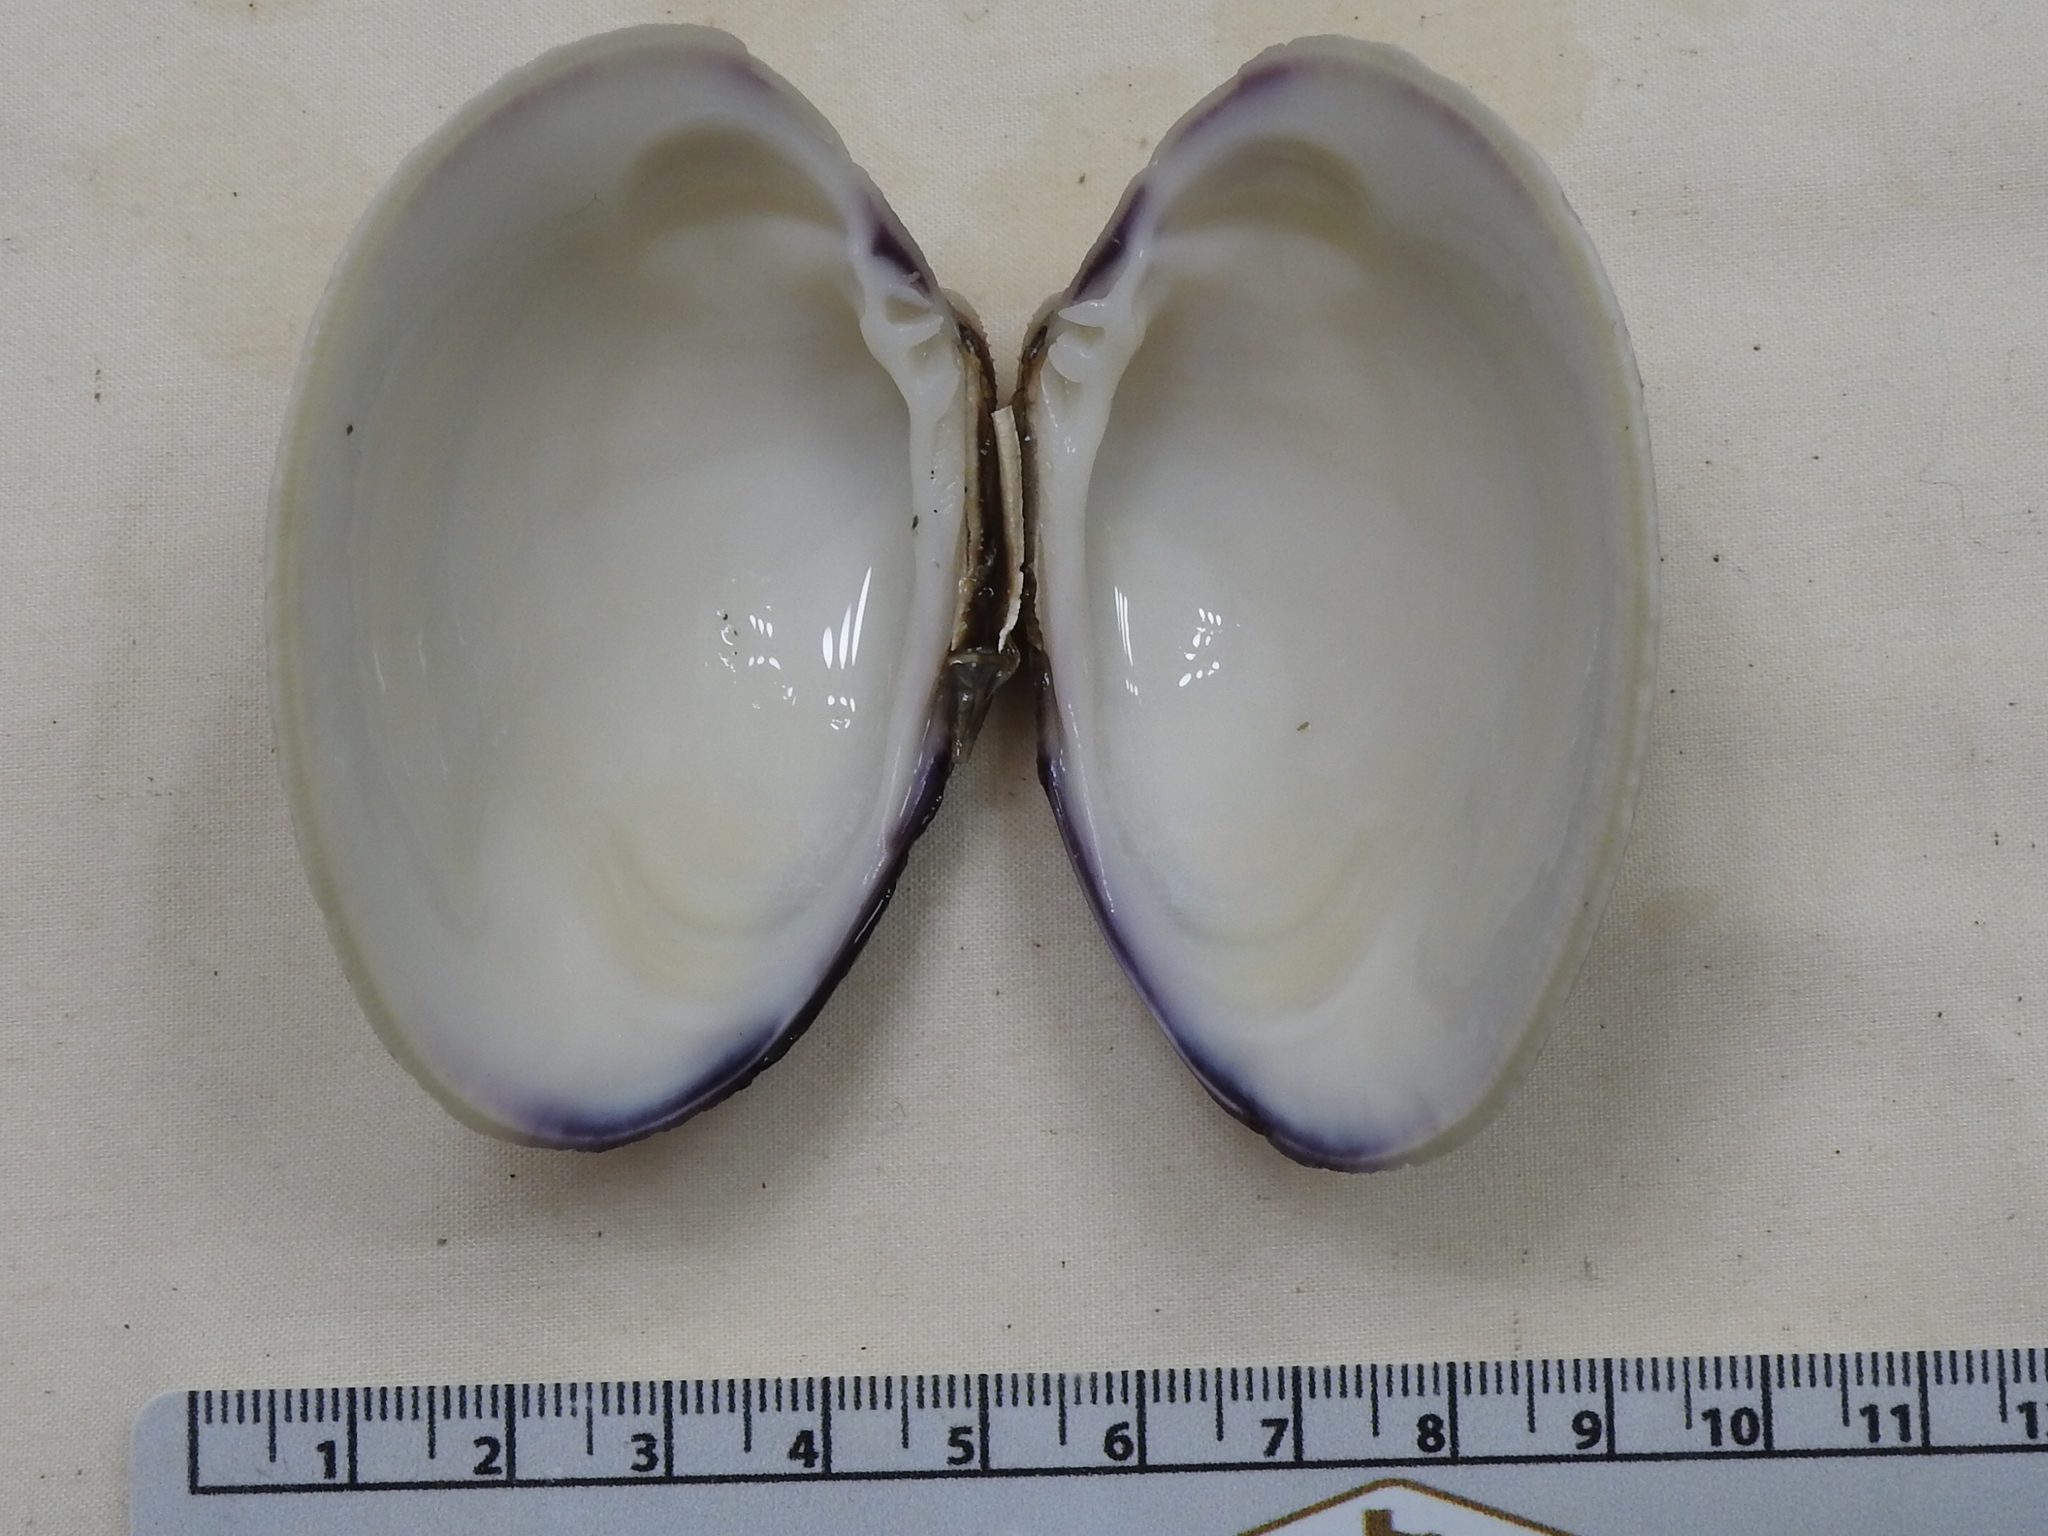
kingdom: Animalia
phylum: Mollusca
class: Bivalvia
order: Venerida
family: Veneridae
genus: Mercenaria
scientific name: Mercenaria campechiensis
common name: Südliche quahog-muschel
